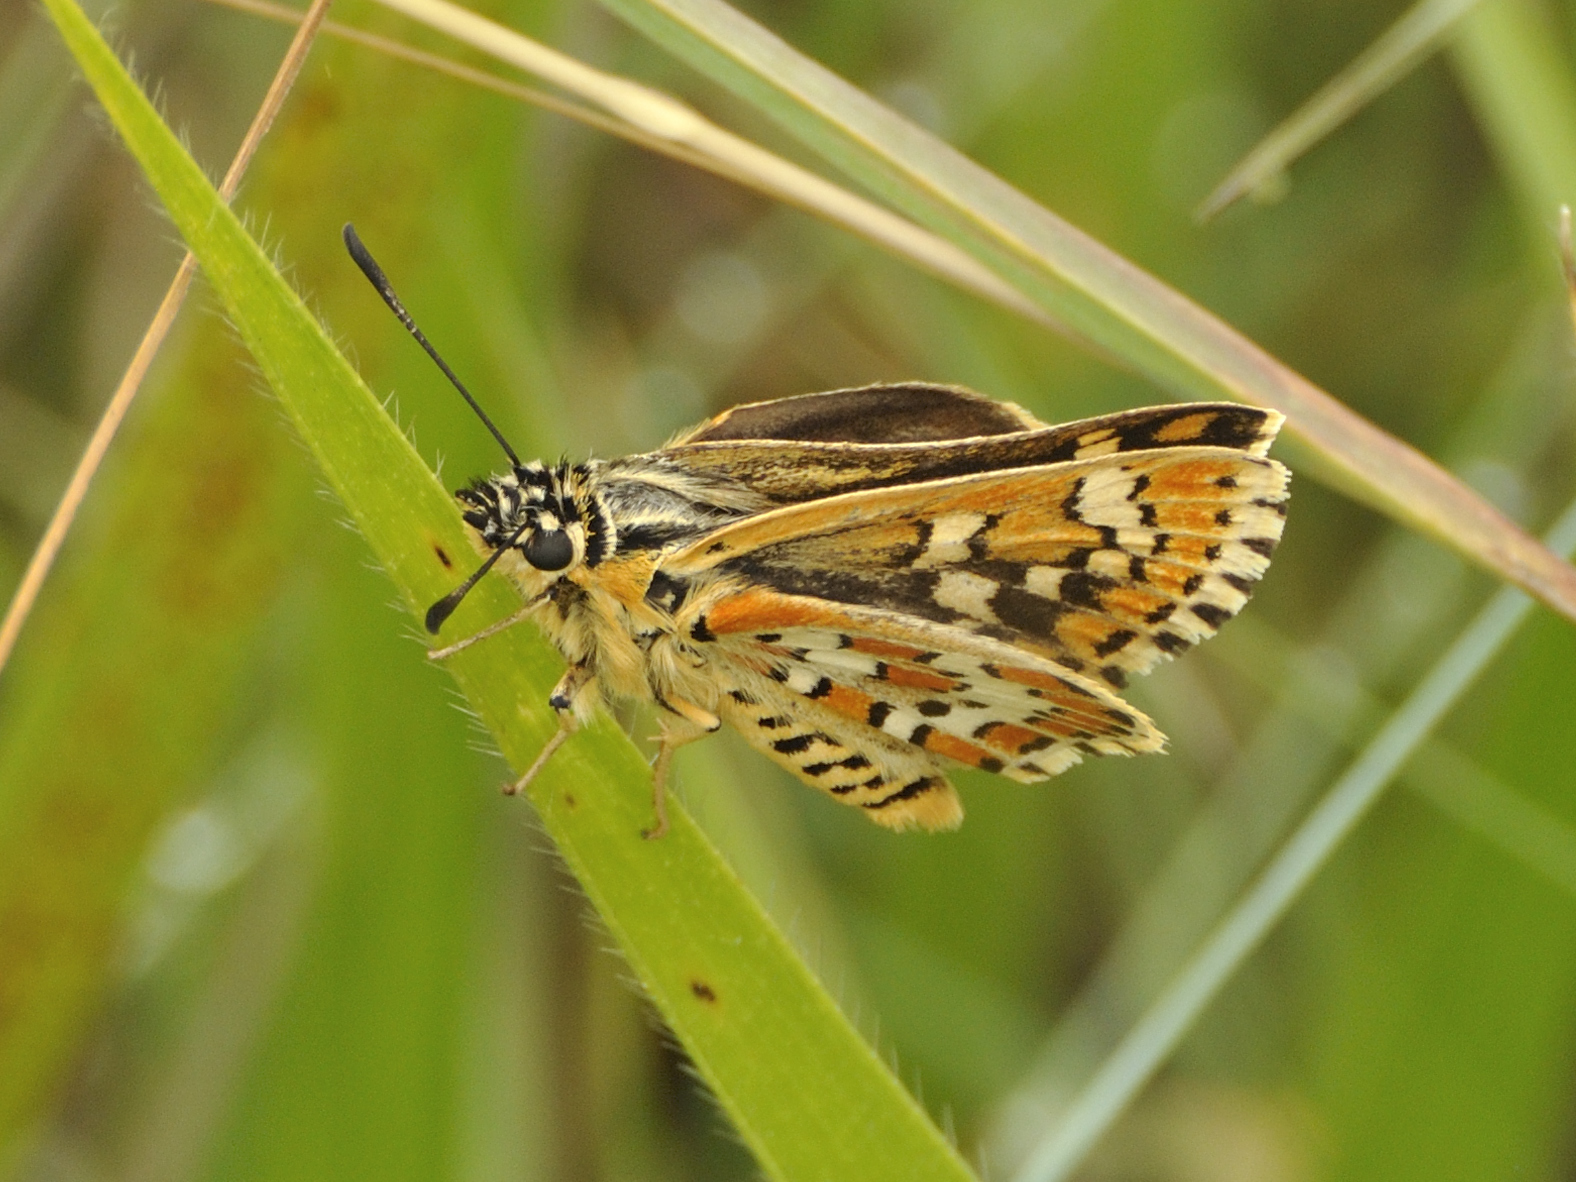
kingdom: Animalia
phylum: Arthropoda
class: Insecta
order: Lepidoptera
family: Hesperiidae
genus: Nervia
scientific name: Nervia
